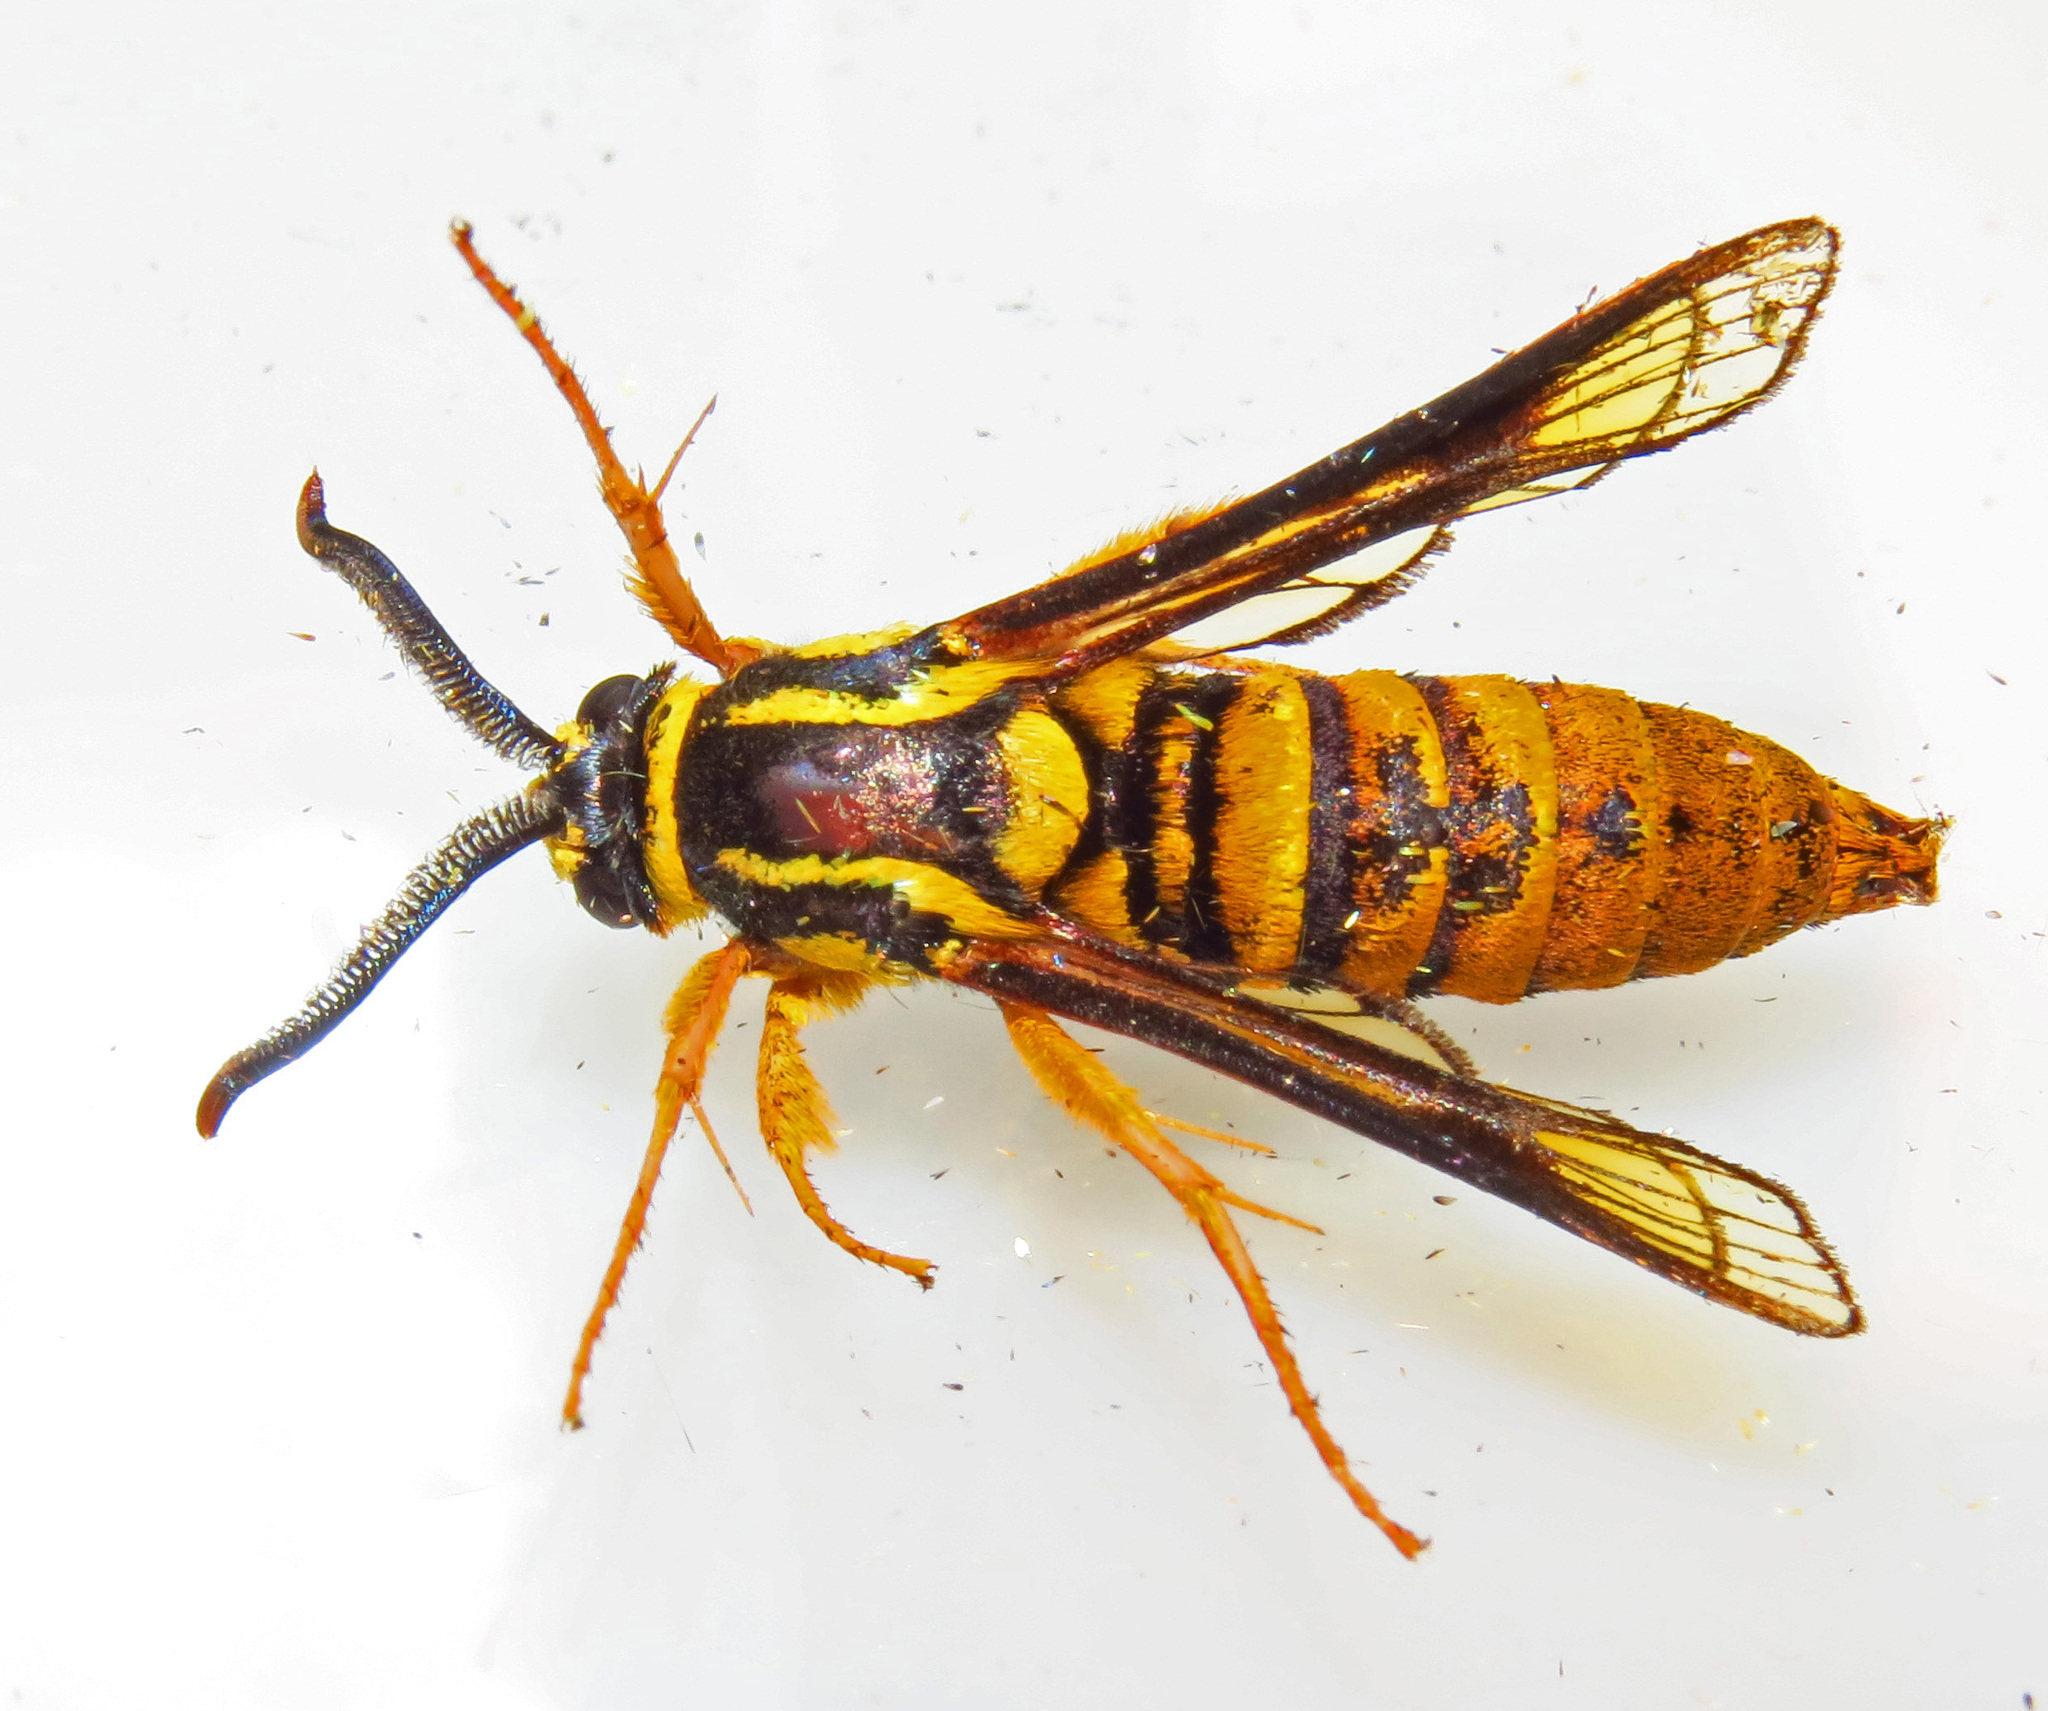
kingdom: Animalia
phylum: Arthropoda
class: Insecta
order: Lepidoptera
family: Sesiidae
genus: Paranthrene
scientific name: Paranthrene simulans
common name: Hornet clearwing moth
